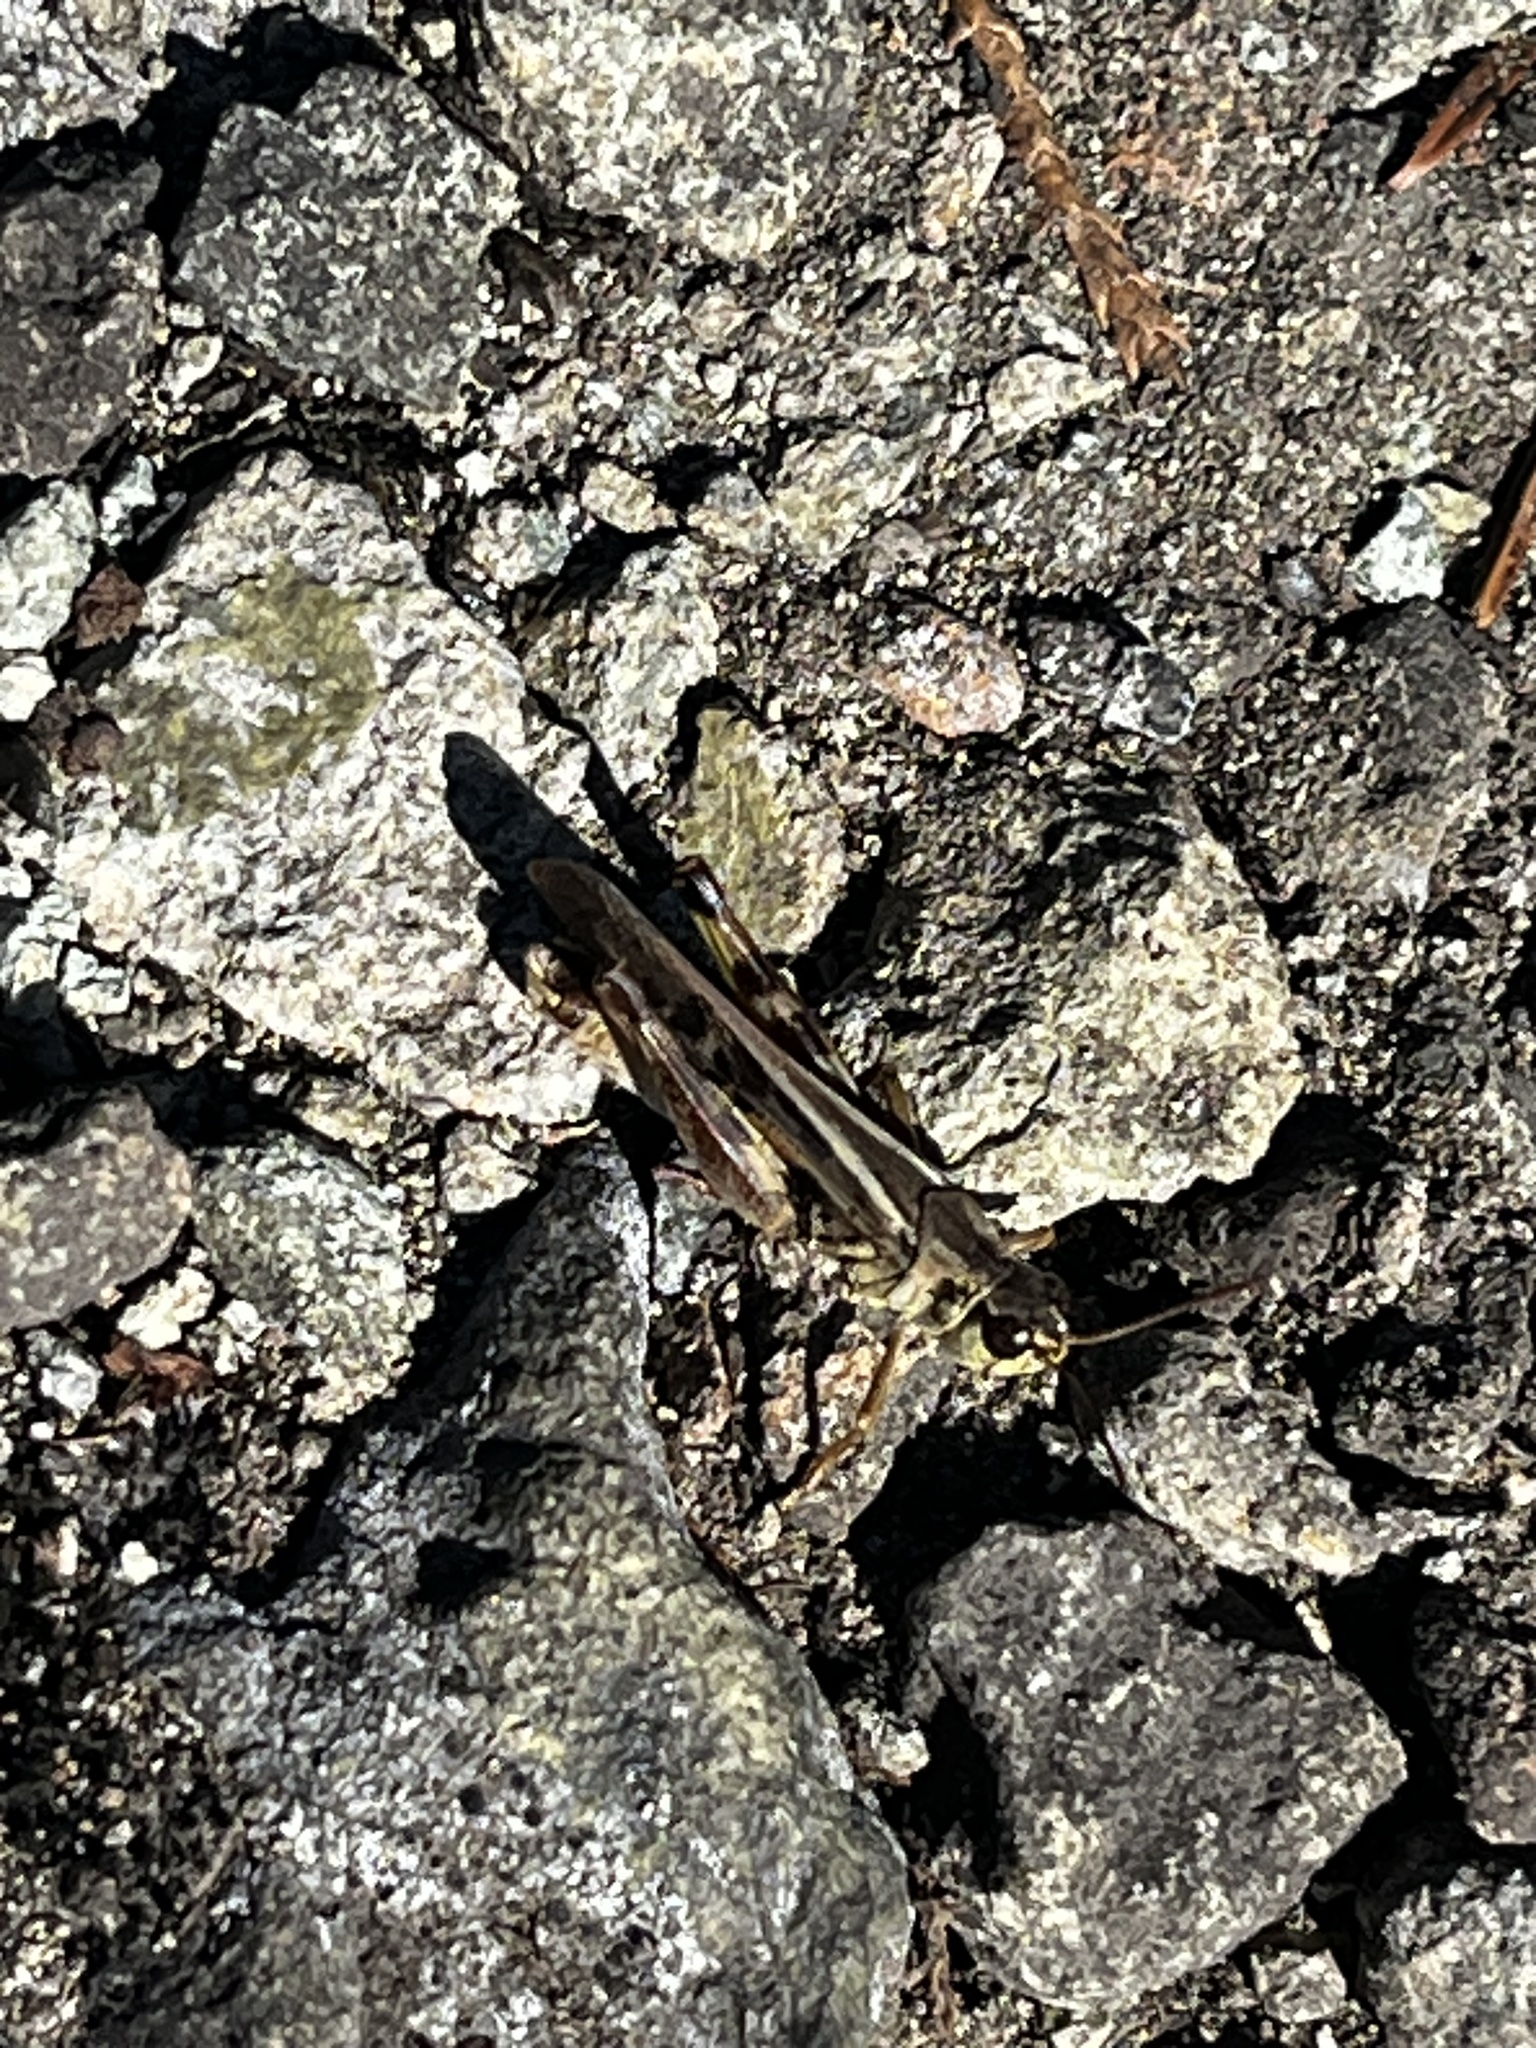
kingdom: Animalia
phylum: Arthropoda
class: Insecta
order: Orthoptera
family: Acrididae
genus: Camnula
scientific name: Camnula pellucida
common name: Clear-winged grasshopper
